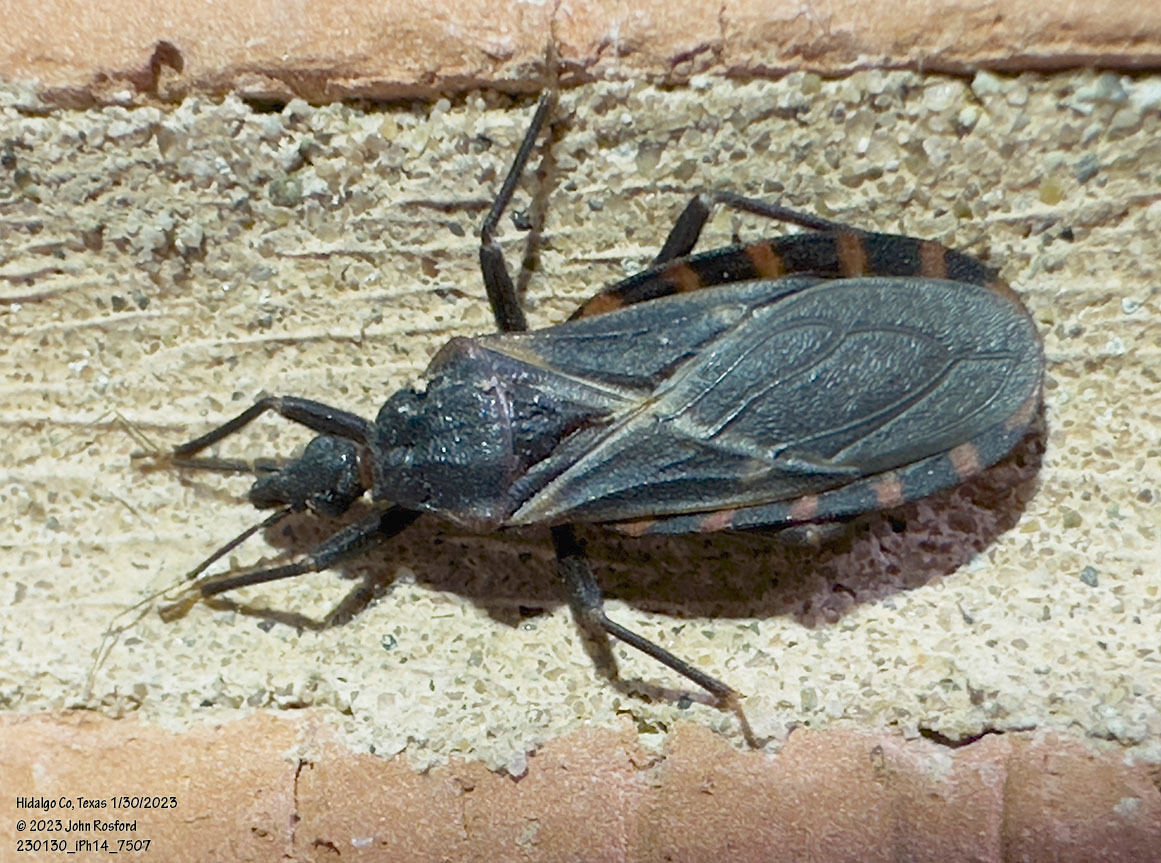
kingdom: Animalia
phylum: Arthropoda
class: Insecta
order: Hemiptera
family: Reduviidae
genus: Triatoma
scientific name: Triatoma sanguisuga
